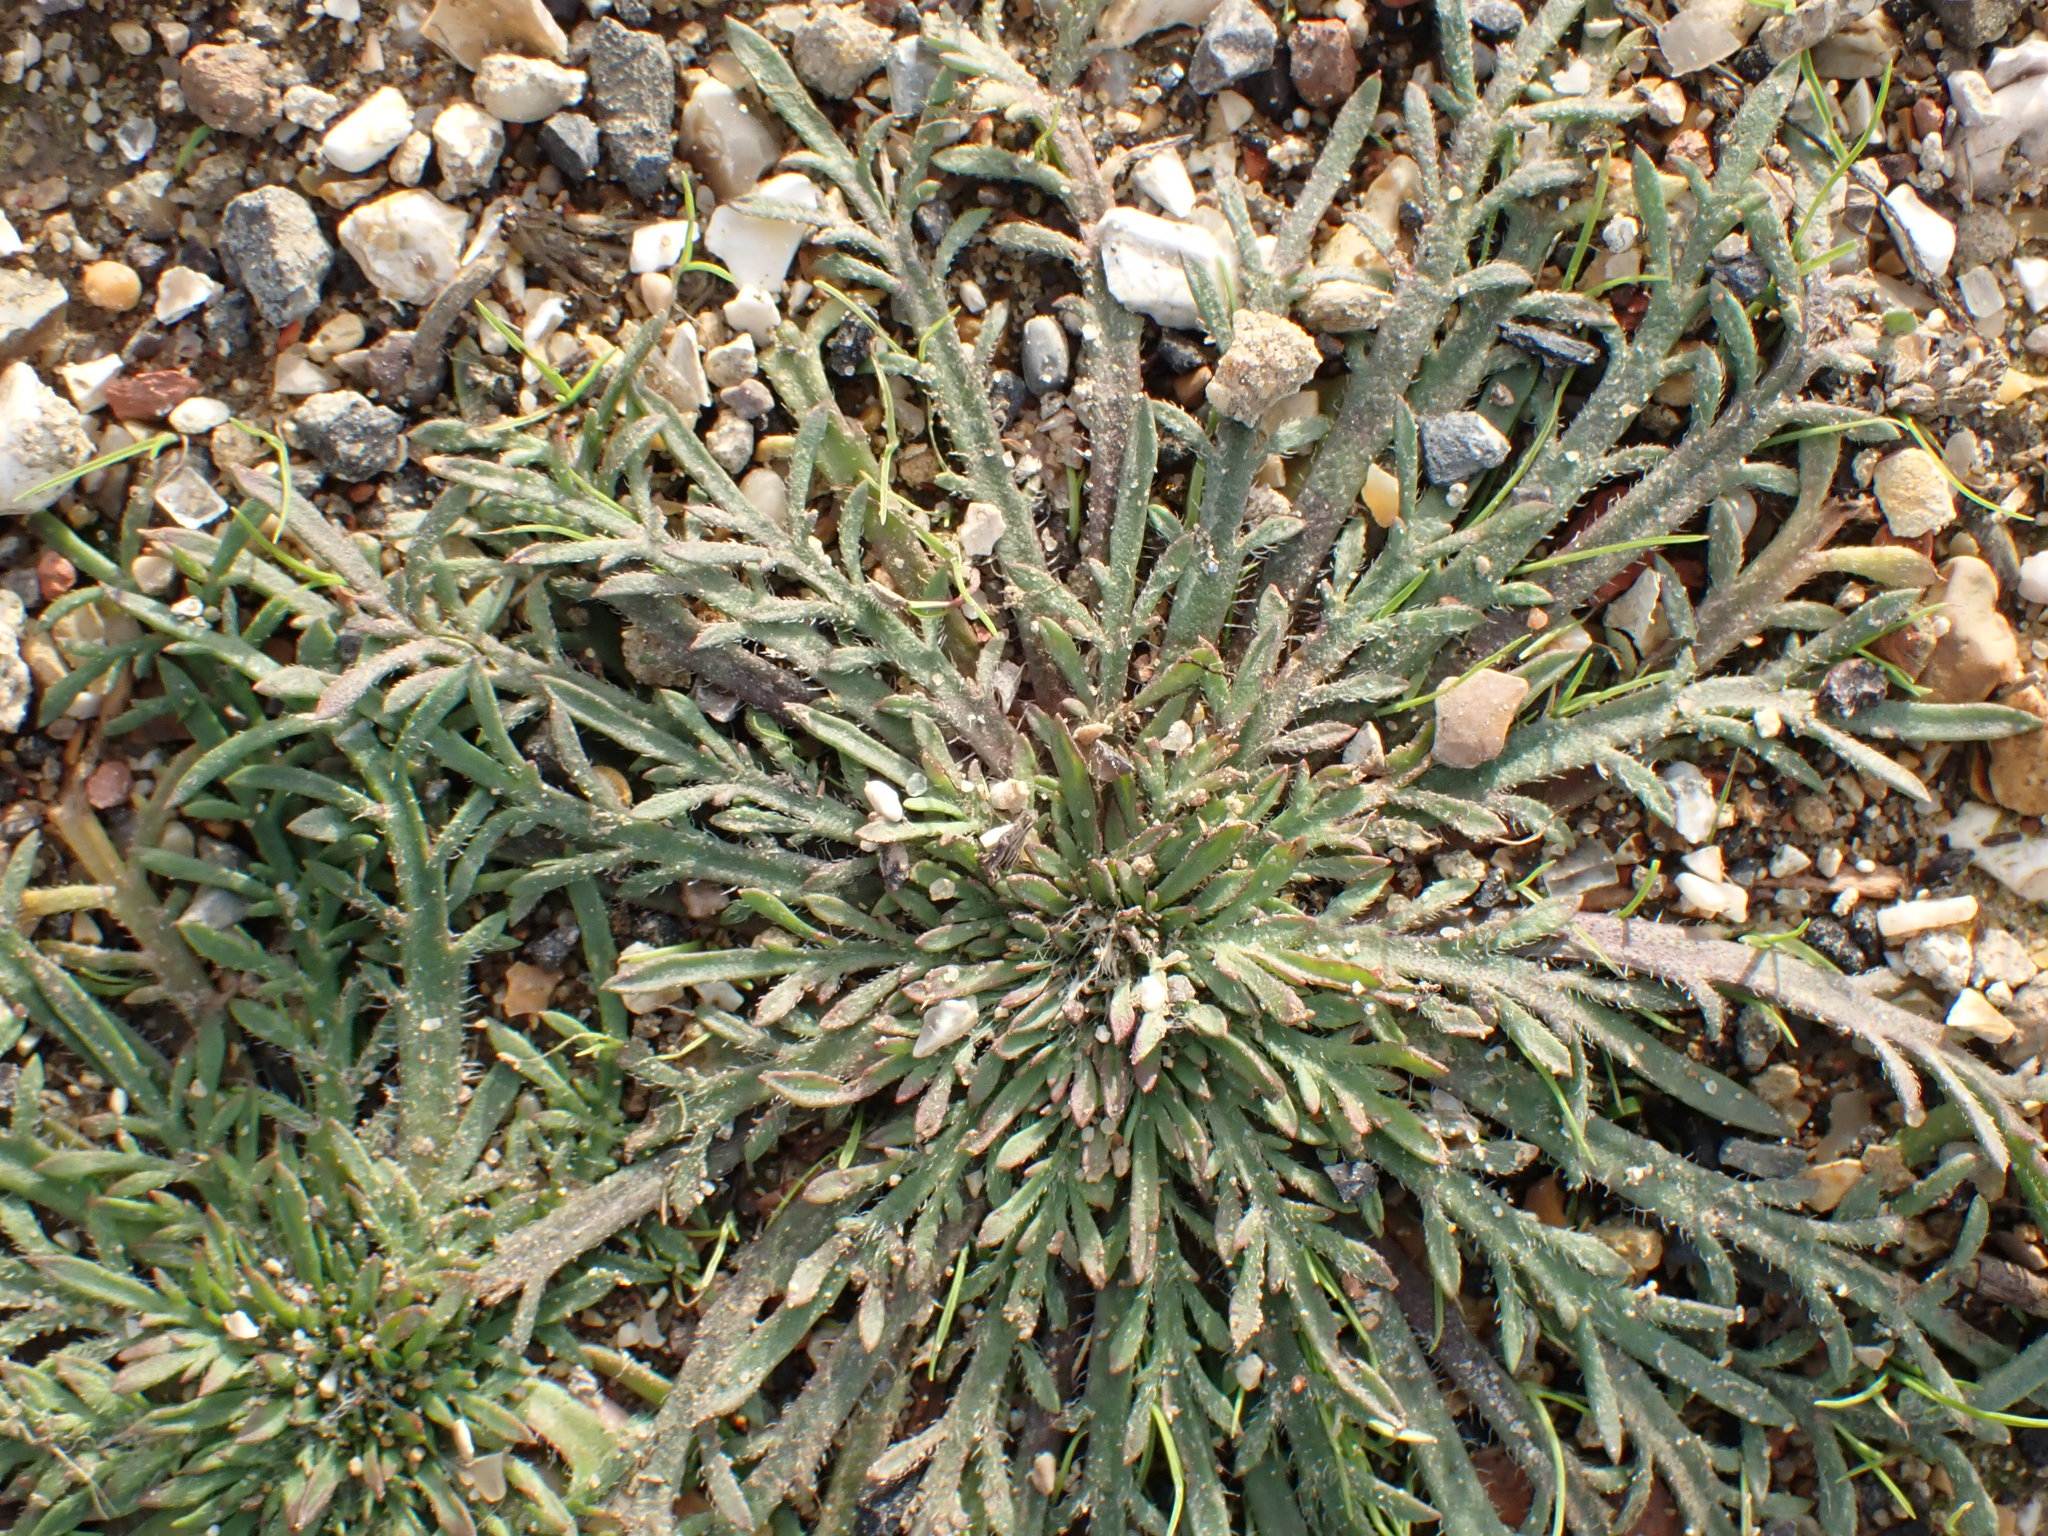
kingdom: Plantae
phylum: Tracheophyta
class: Magnoliopsida
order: Lamiales
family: Plantaginaceae
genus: Plantago
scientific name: Plantago coronopus
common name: Buck's-horn plantain
